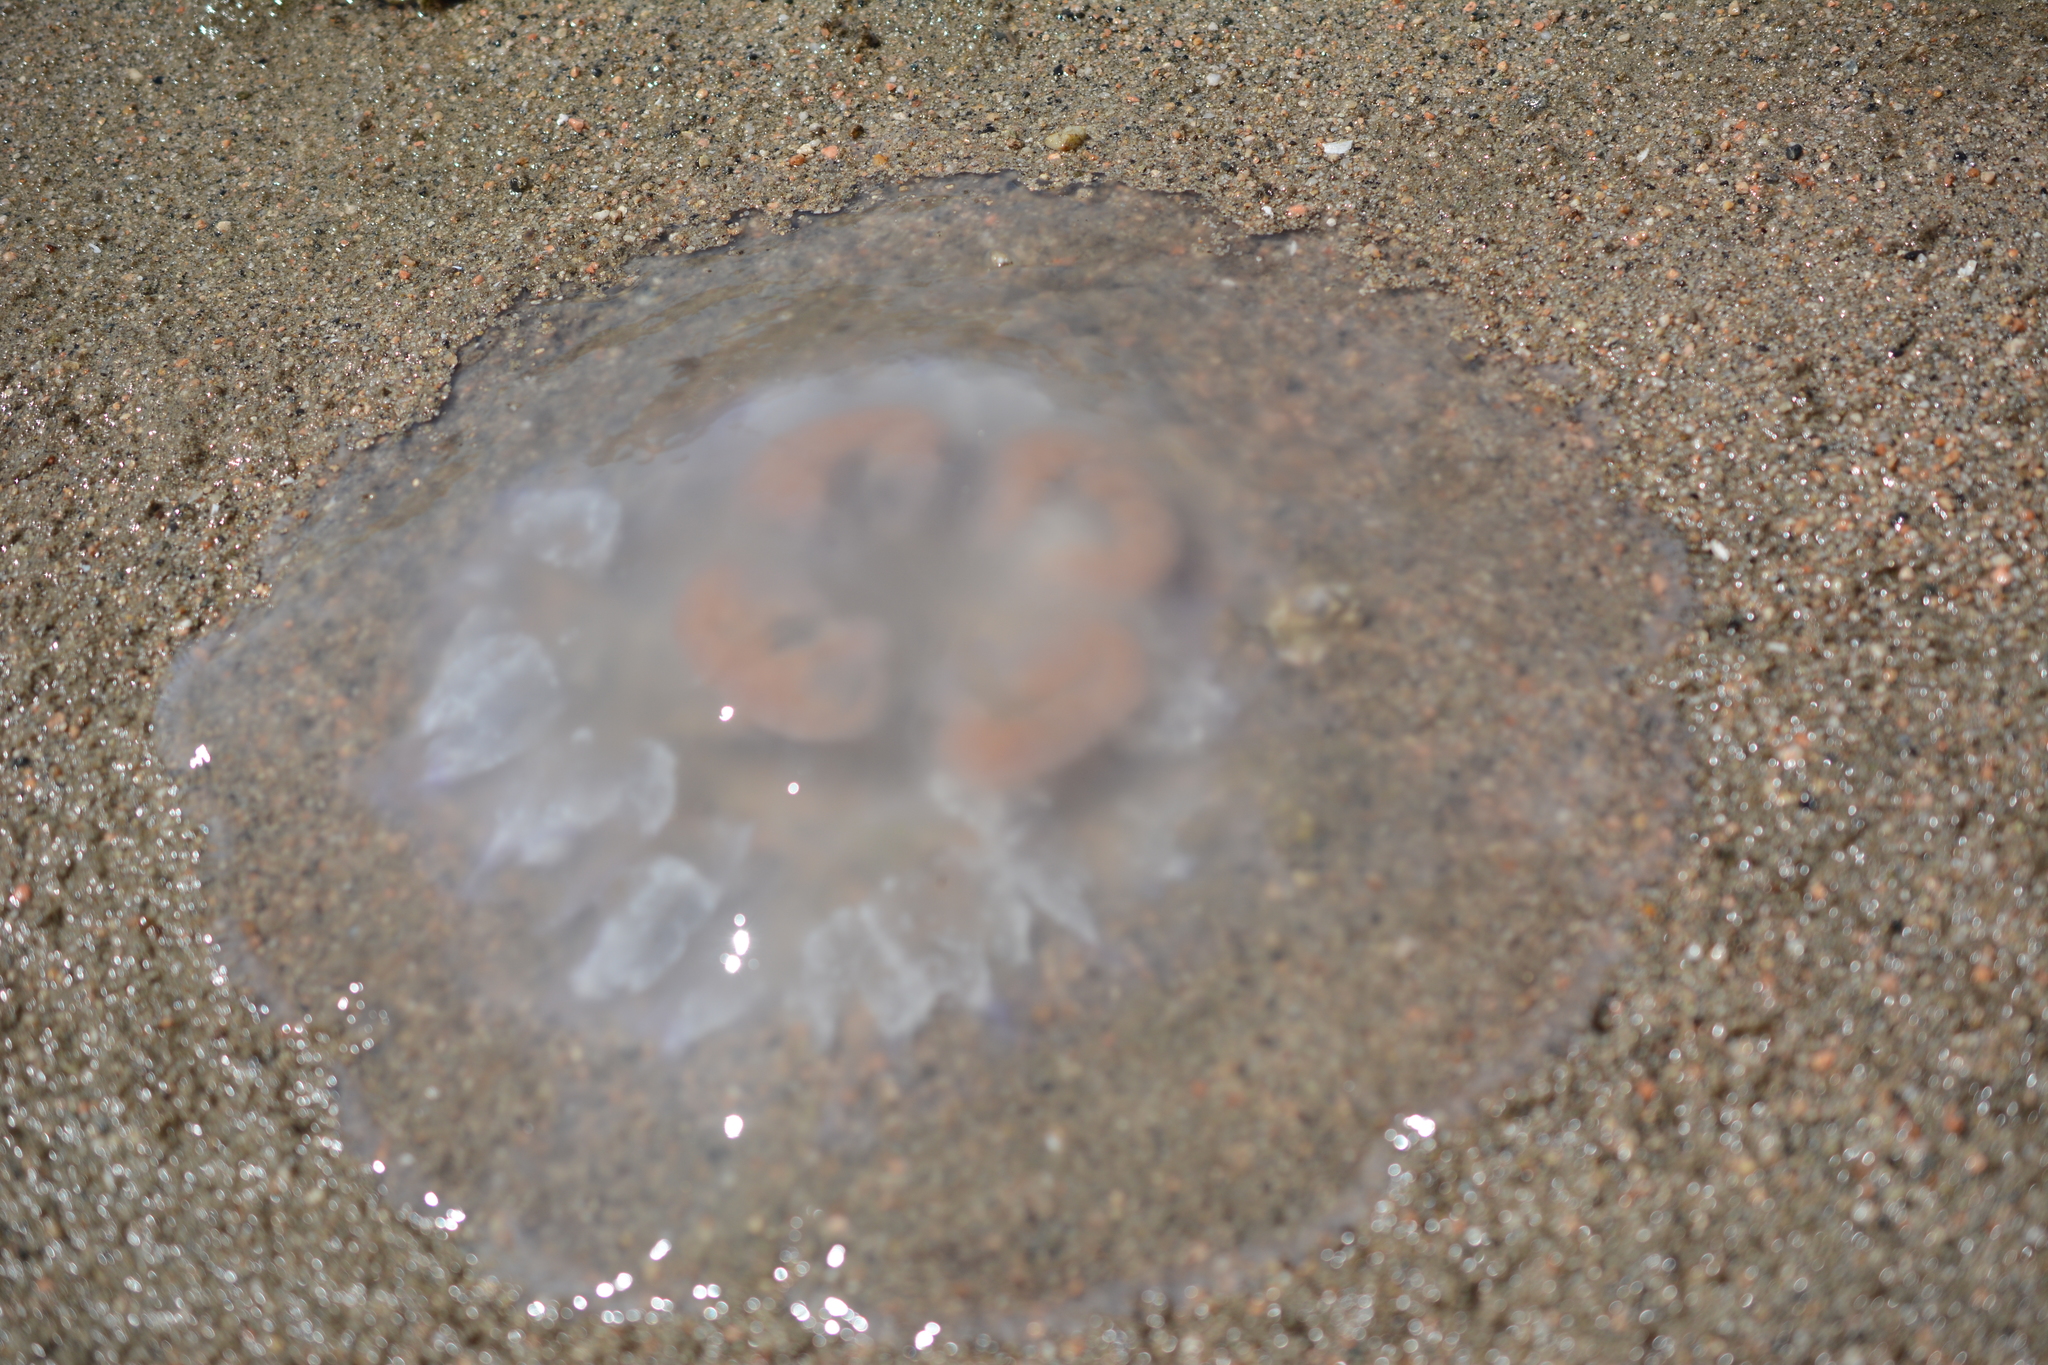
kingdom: Animalia
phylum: Cnidaria
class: Scyphozoa
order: Semaeostomeae
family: Ulmaridae
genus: Aurelia
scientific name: Aurelia labiata
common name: Pacific moon jelly
